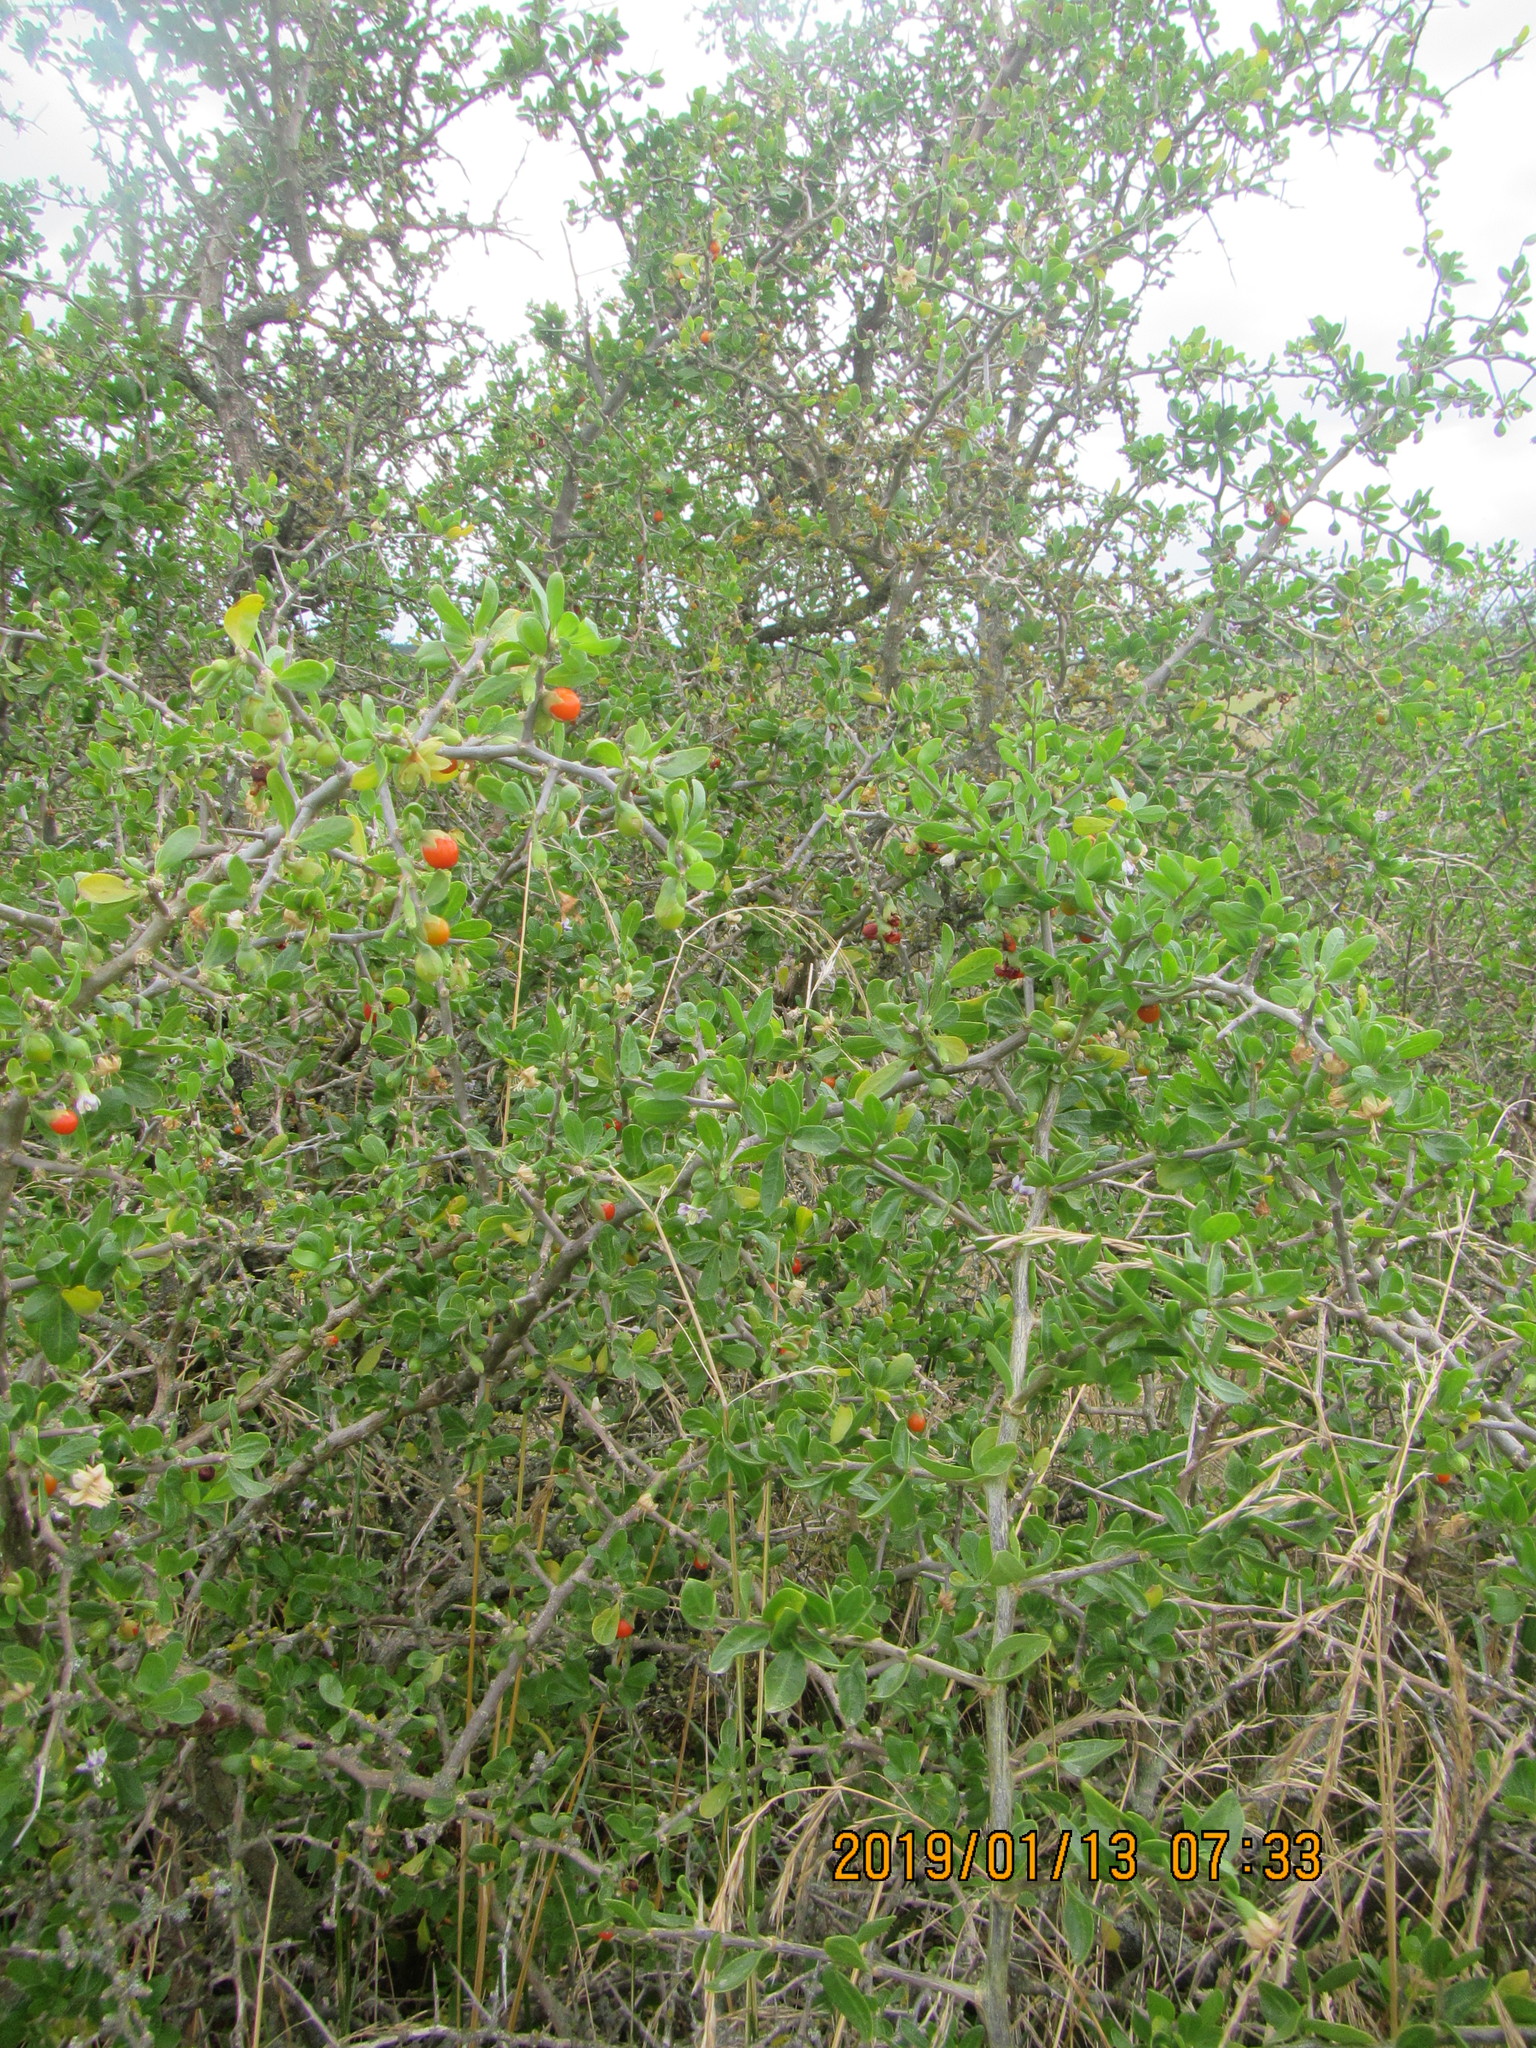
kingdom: Plantae
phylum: Tracheophyta
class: Magnoliopsida
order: Solanales
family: Solanaceae
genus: Lycium
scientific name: Lycium ferocissimum
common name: African boxthorn
